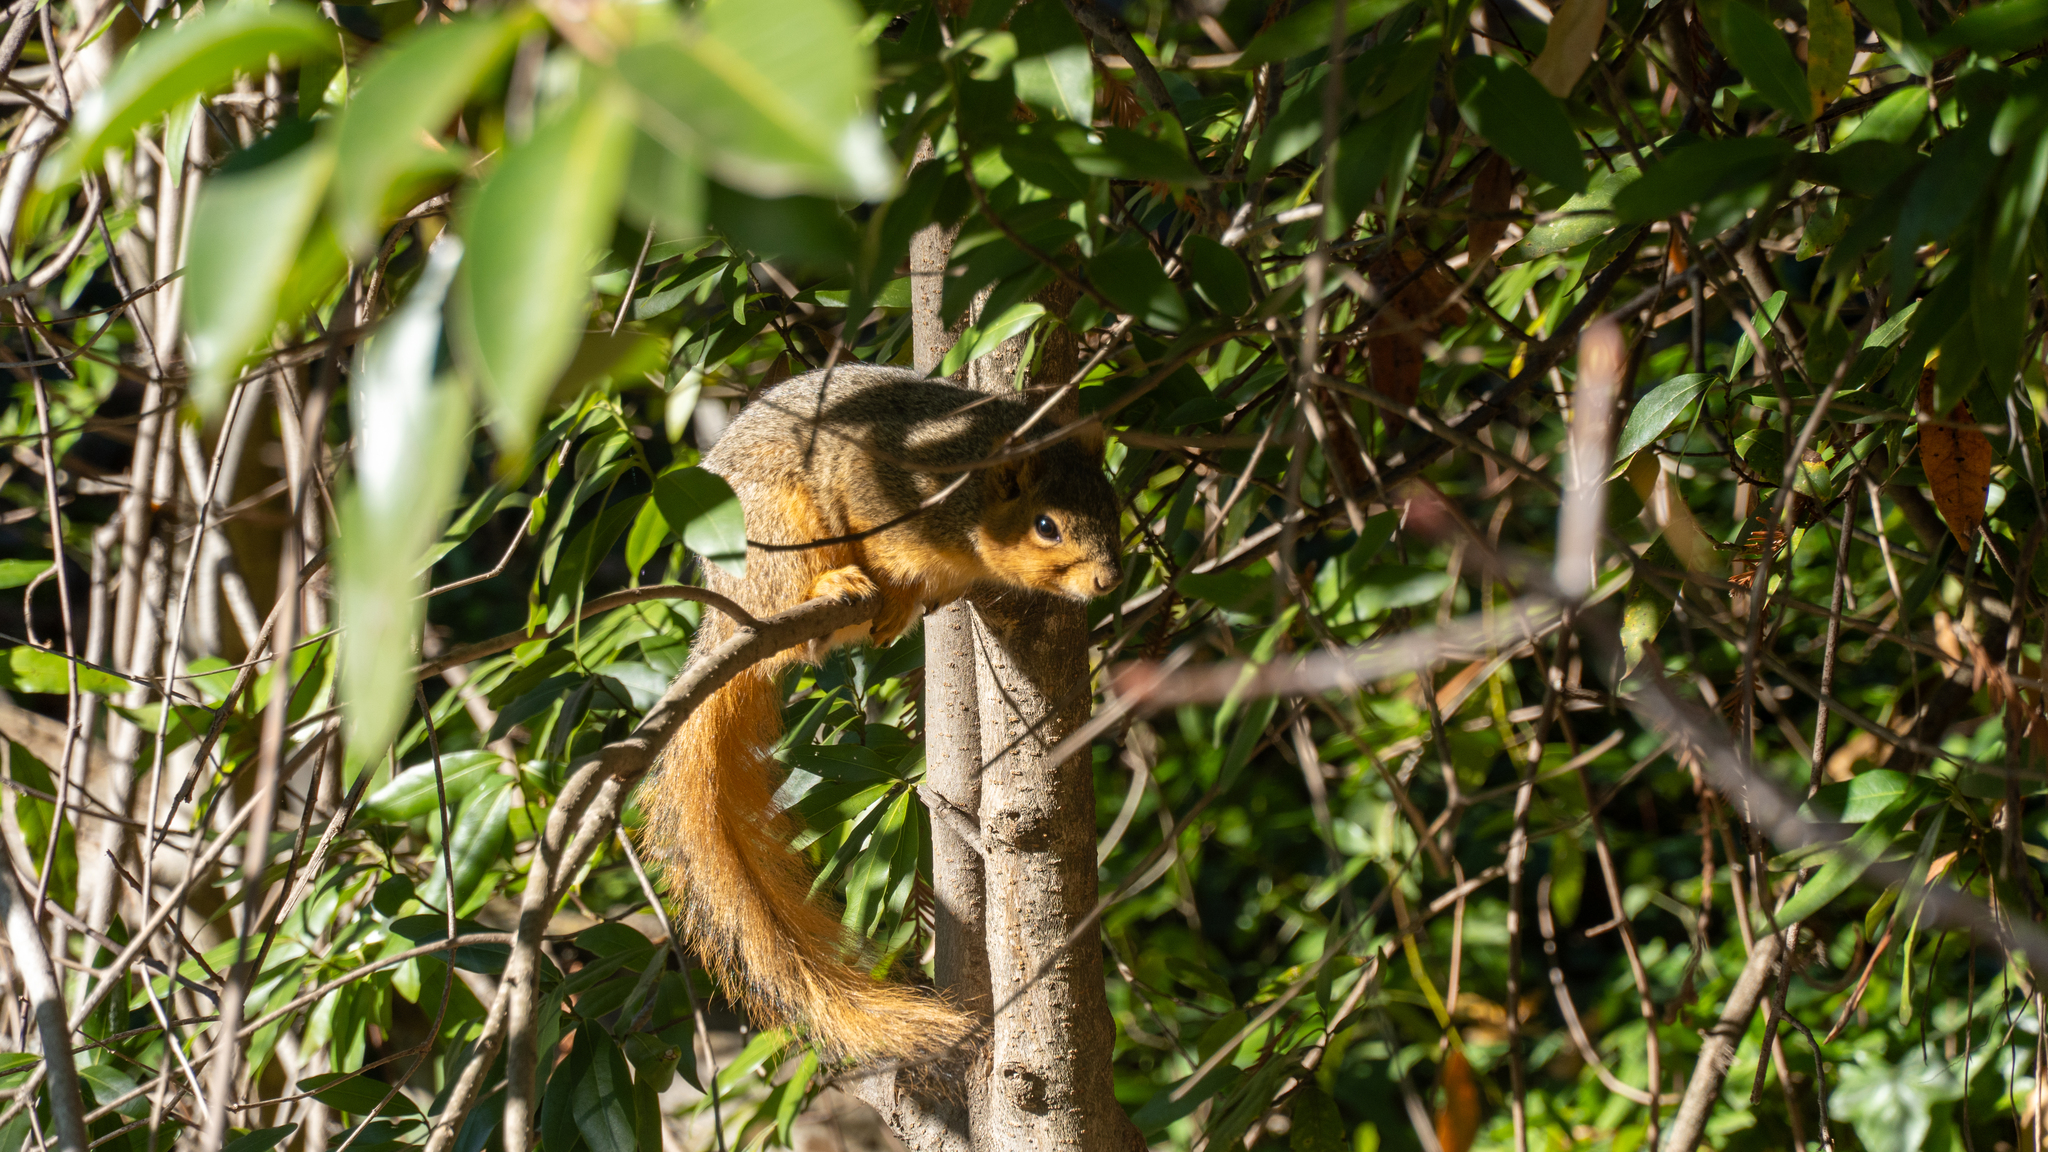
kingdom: Animalia
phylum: Chordata
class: Mammalia
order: Rodentia
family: Sciuridae
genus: Sciurus
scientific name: Sciurus niger
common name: Fox squirrel
